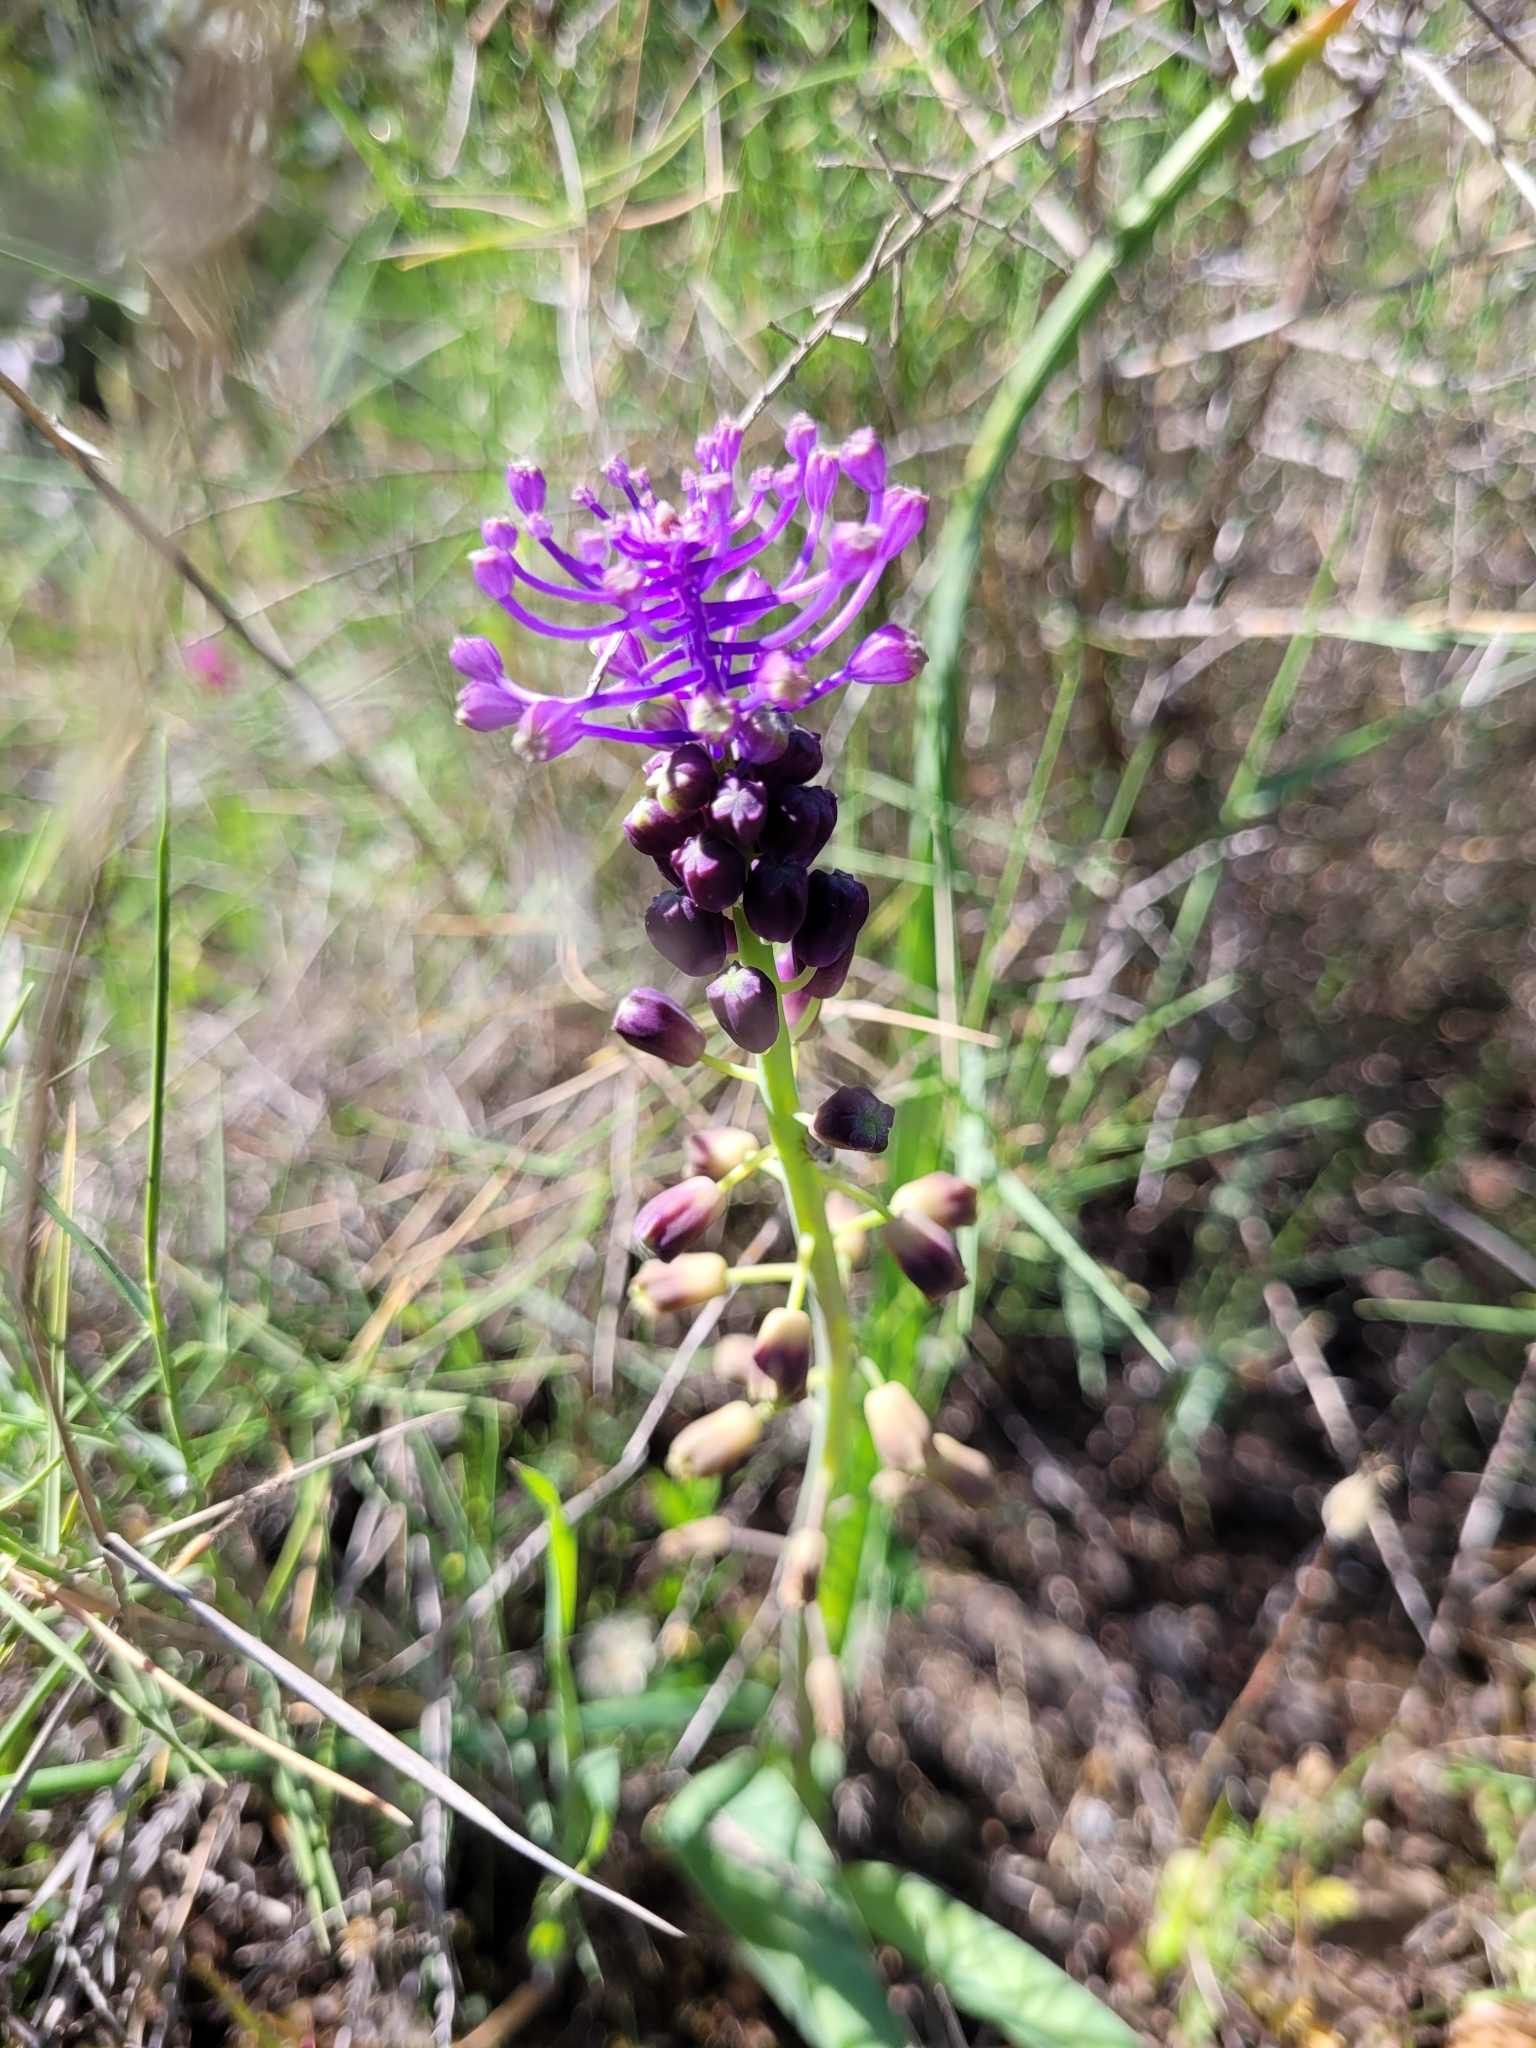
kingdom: Plantae
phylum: Tracheophyta
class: Liliopsida
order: Asparagales
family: Asparagaceae
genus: Muscari
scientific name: Muscari comosum
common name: Tassel hyacinth
